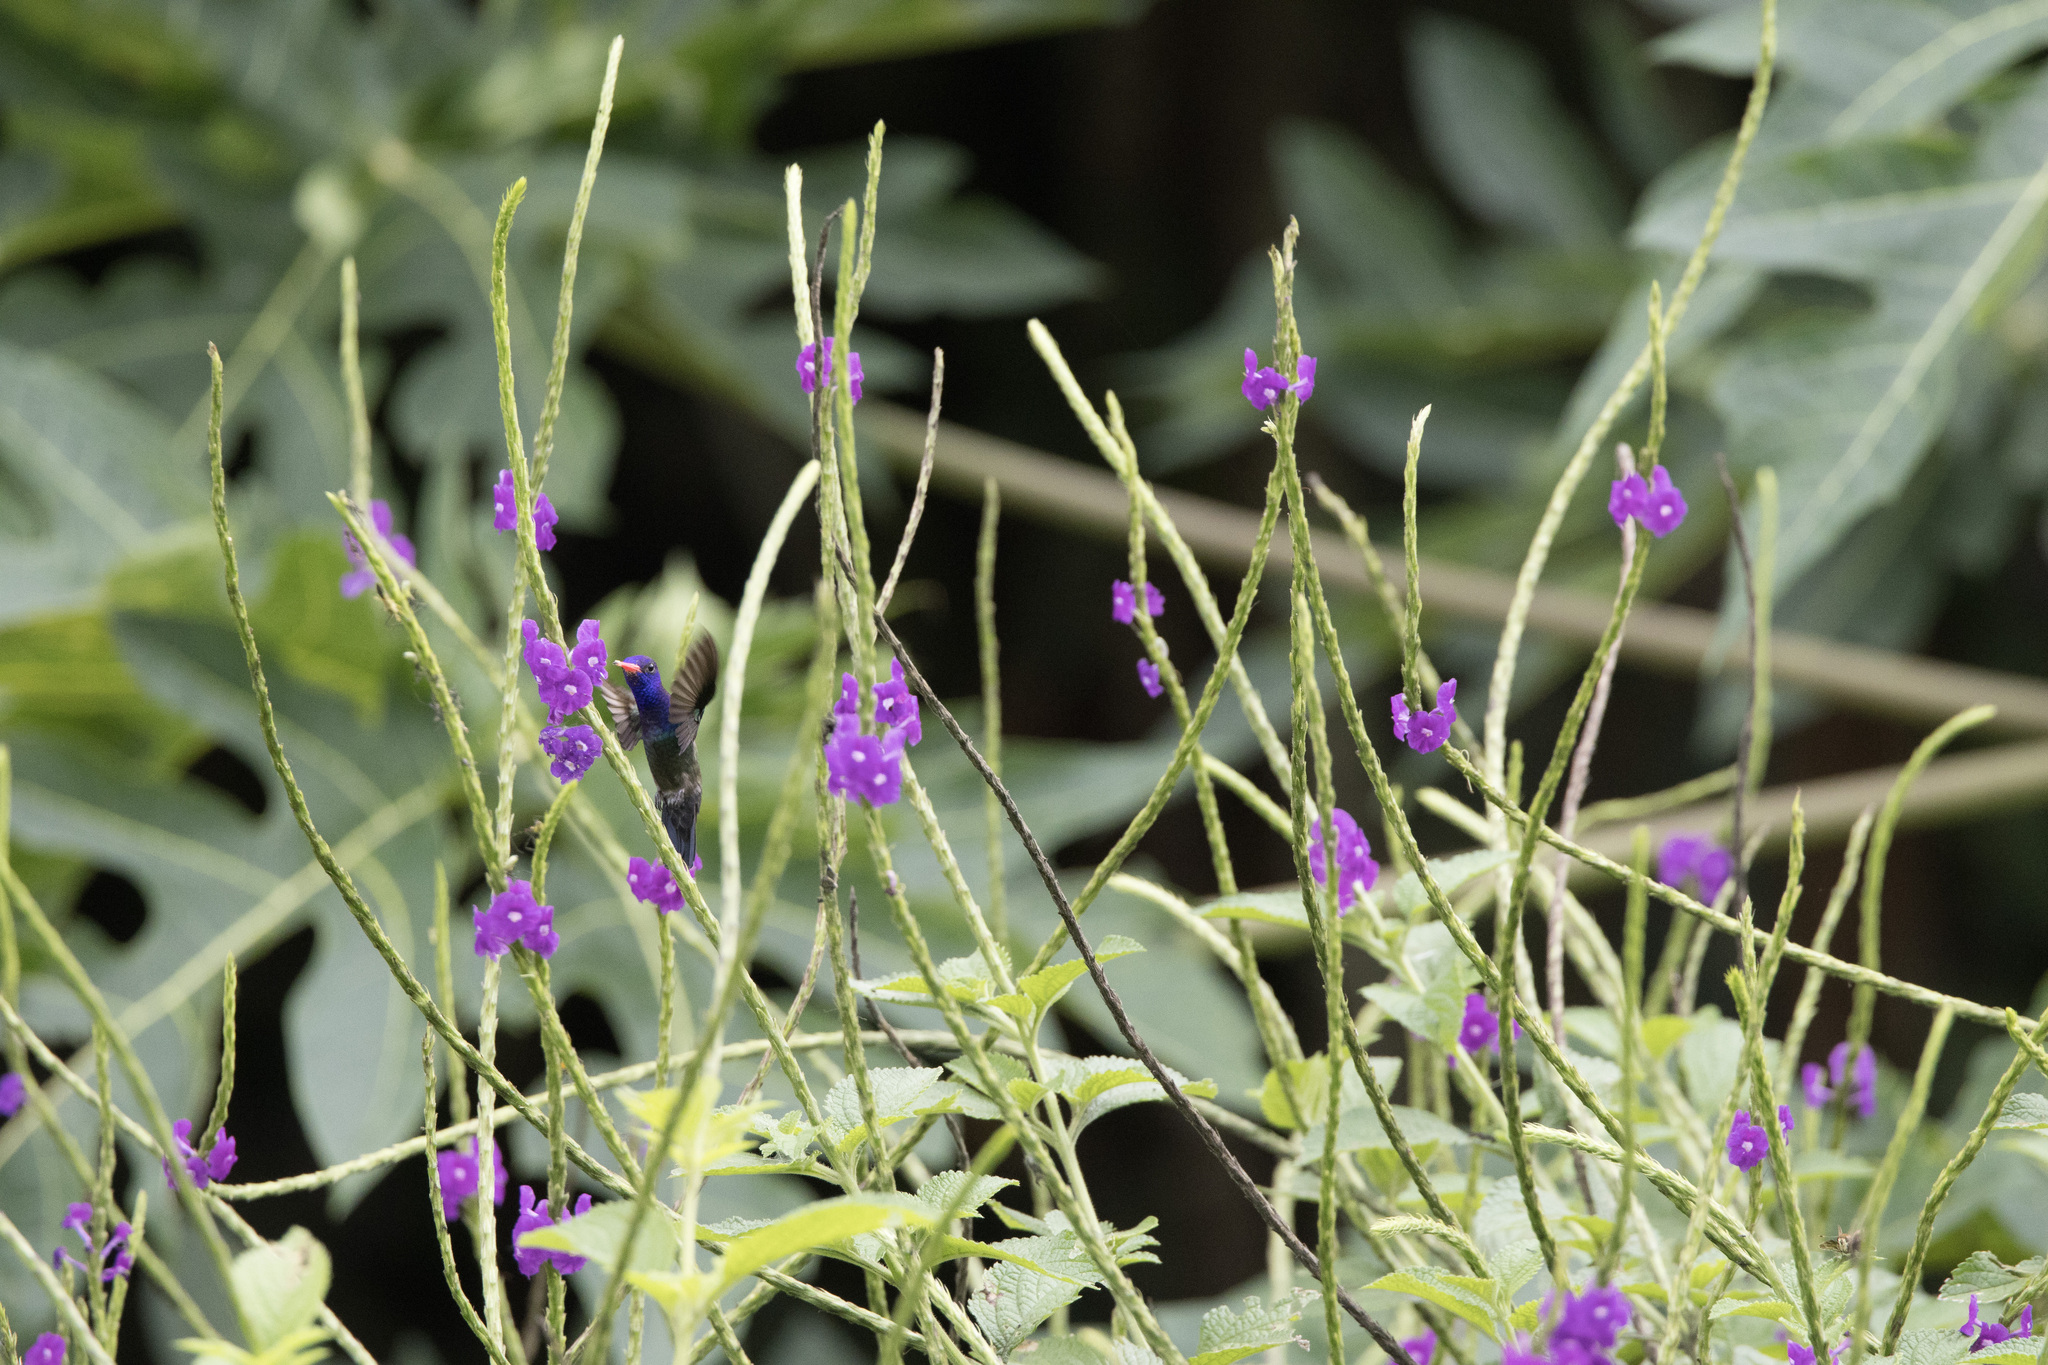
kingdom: Animalia
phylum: Chordata
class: Aves
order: Apodiformes
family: Trochilidae
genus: Chlorestes
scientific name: Chlorestes cyanus
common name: White-chinned sapphire
